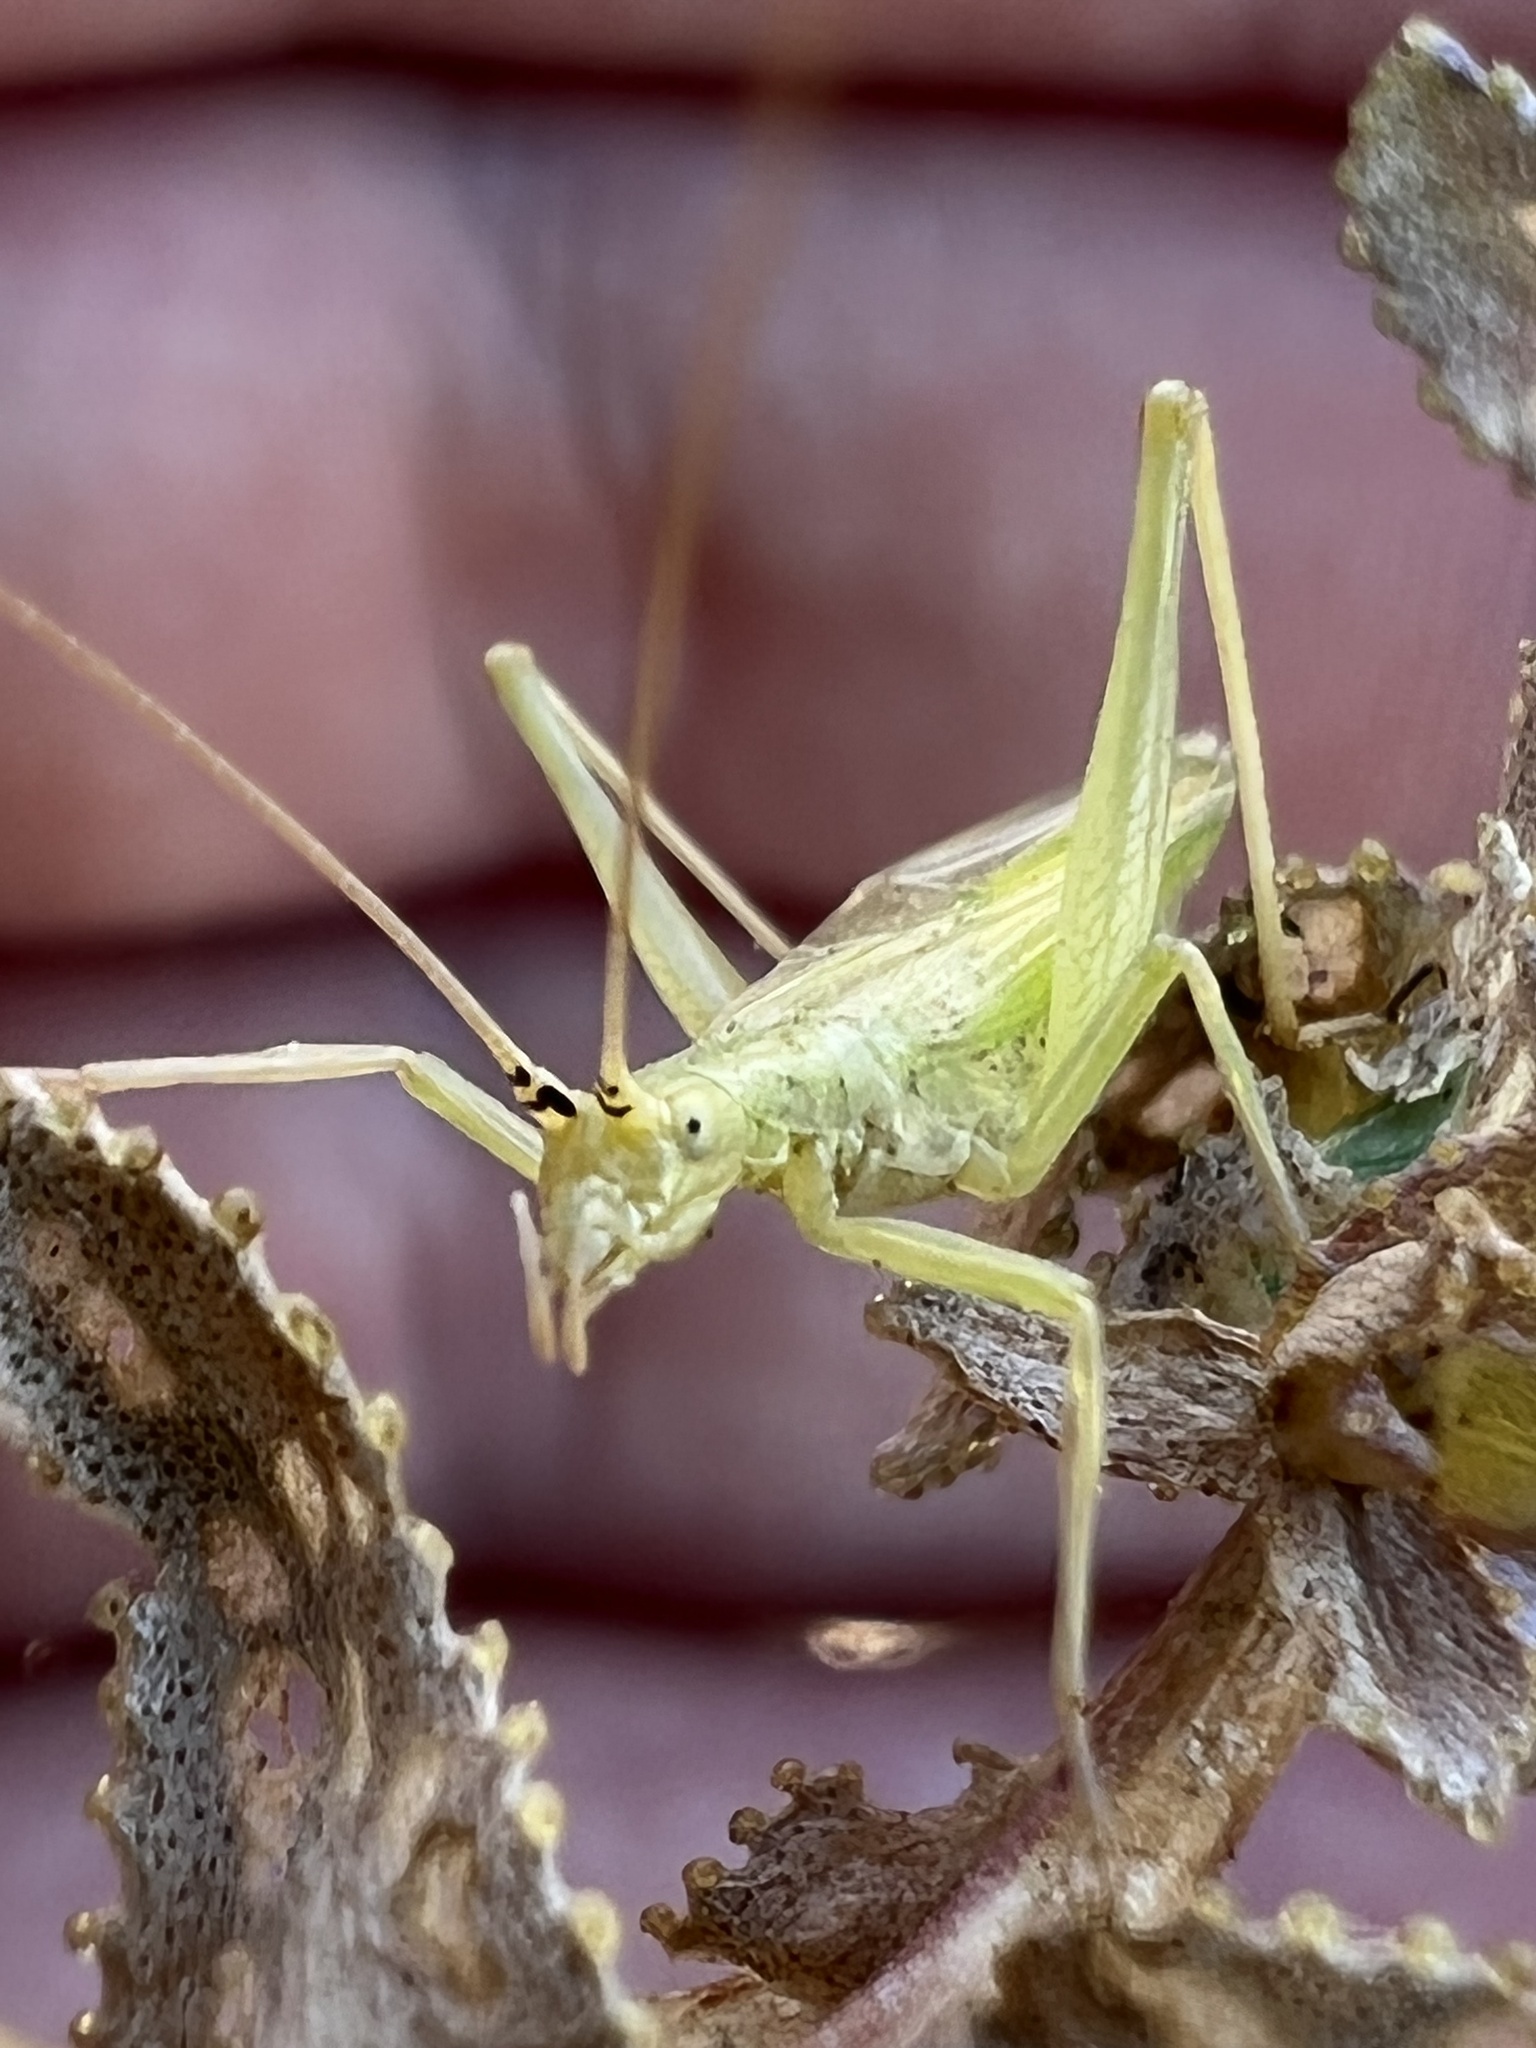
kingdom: Animalia
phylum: Arthropoda
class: Insecta
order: Orthoptera
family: Gryllidae
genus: Oecanthus
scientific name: Oecanthus argentinus
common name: Prairie tree cricket
